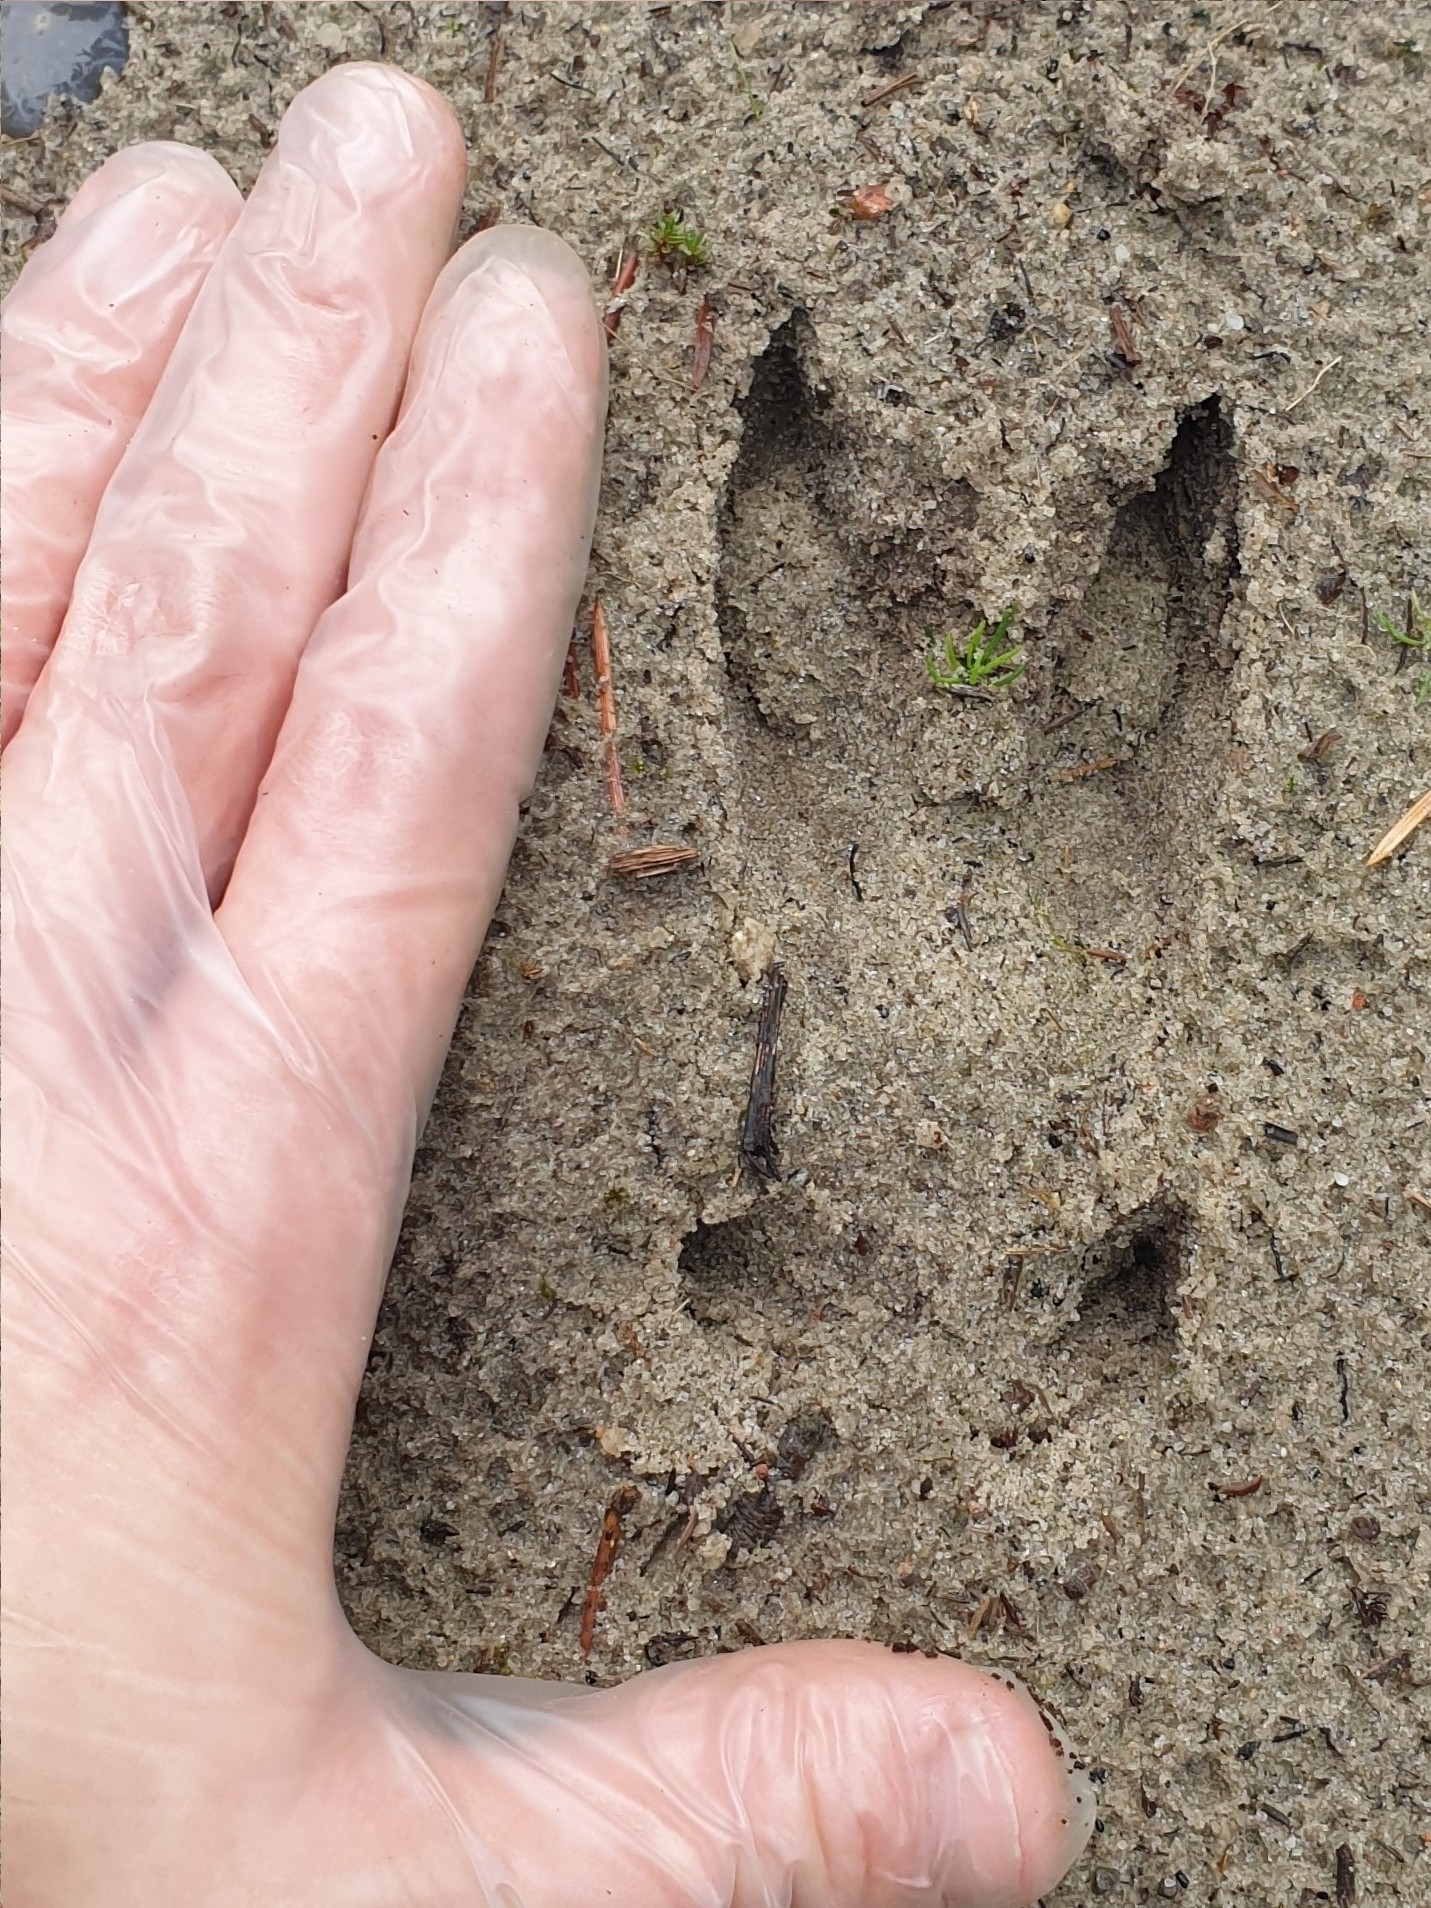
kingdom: Animalia
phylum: Chordata
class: Mammalia
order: Artiodactyla
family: Cervidae
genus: Capreolus
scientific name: Capreolus capreolus
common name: Western roe deer
